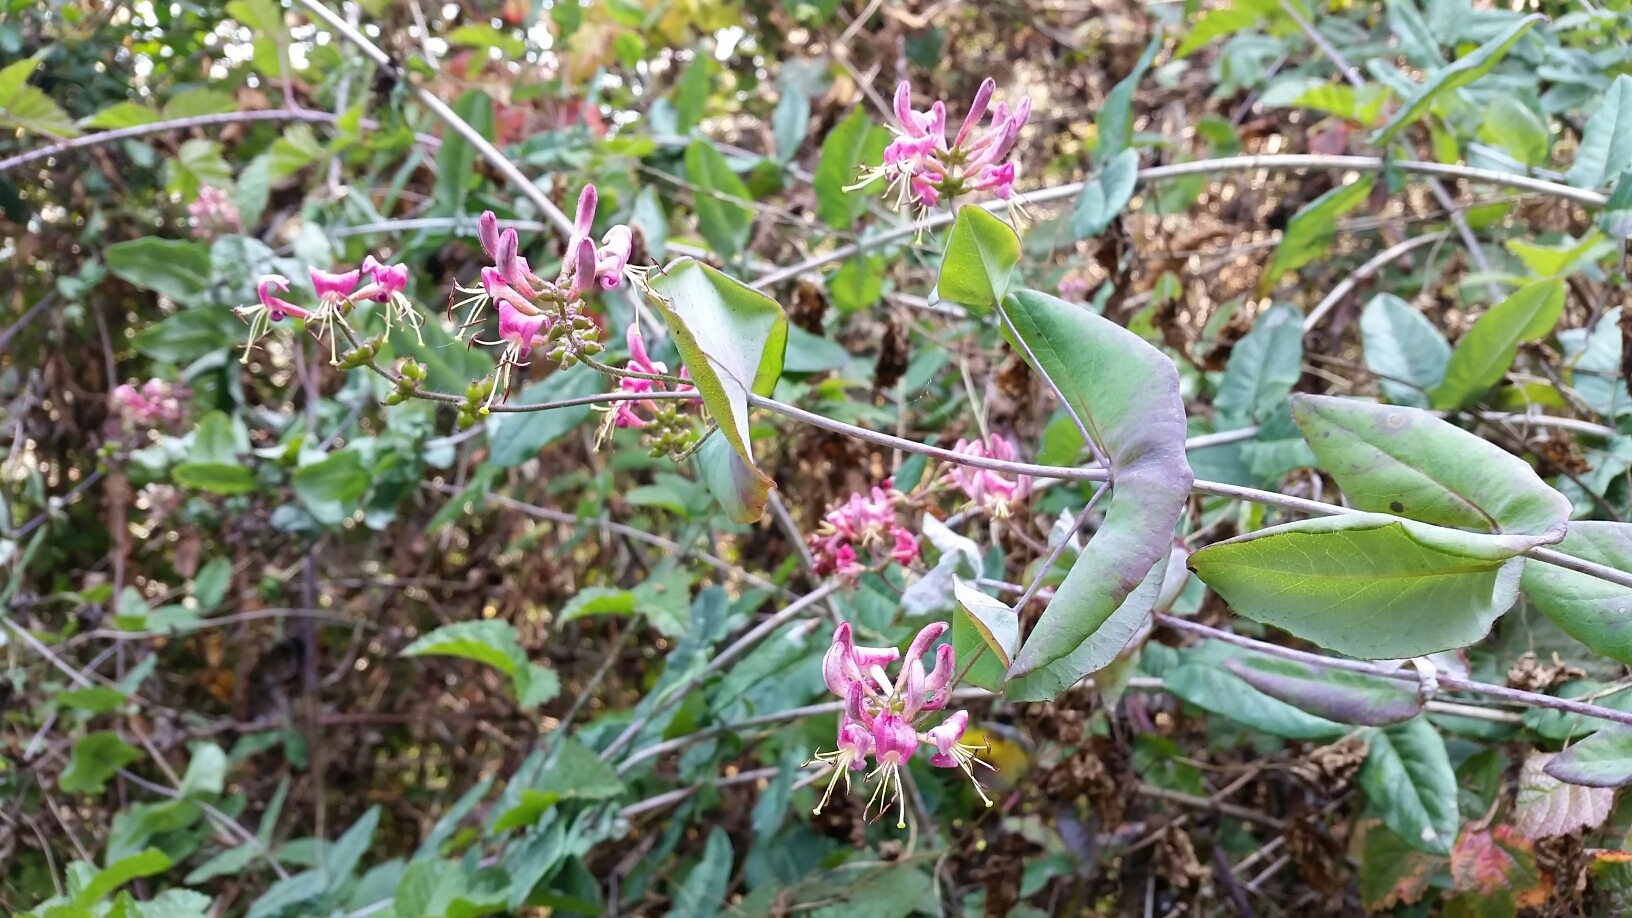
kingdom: Plantae
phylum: Tracheophyta
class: Magnoliopsida
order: Dipsacales
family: Caprifoliaceae
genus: Lonicera
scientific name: Lonicera hispidula
